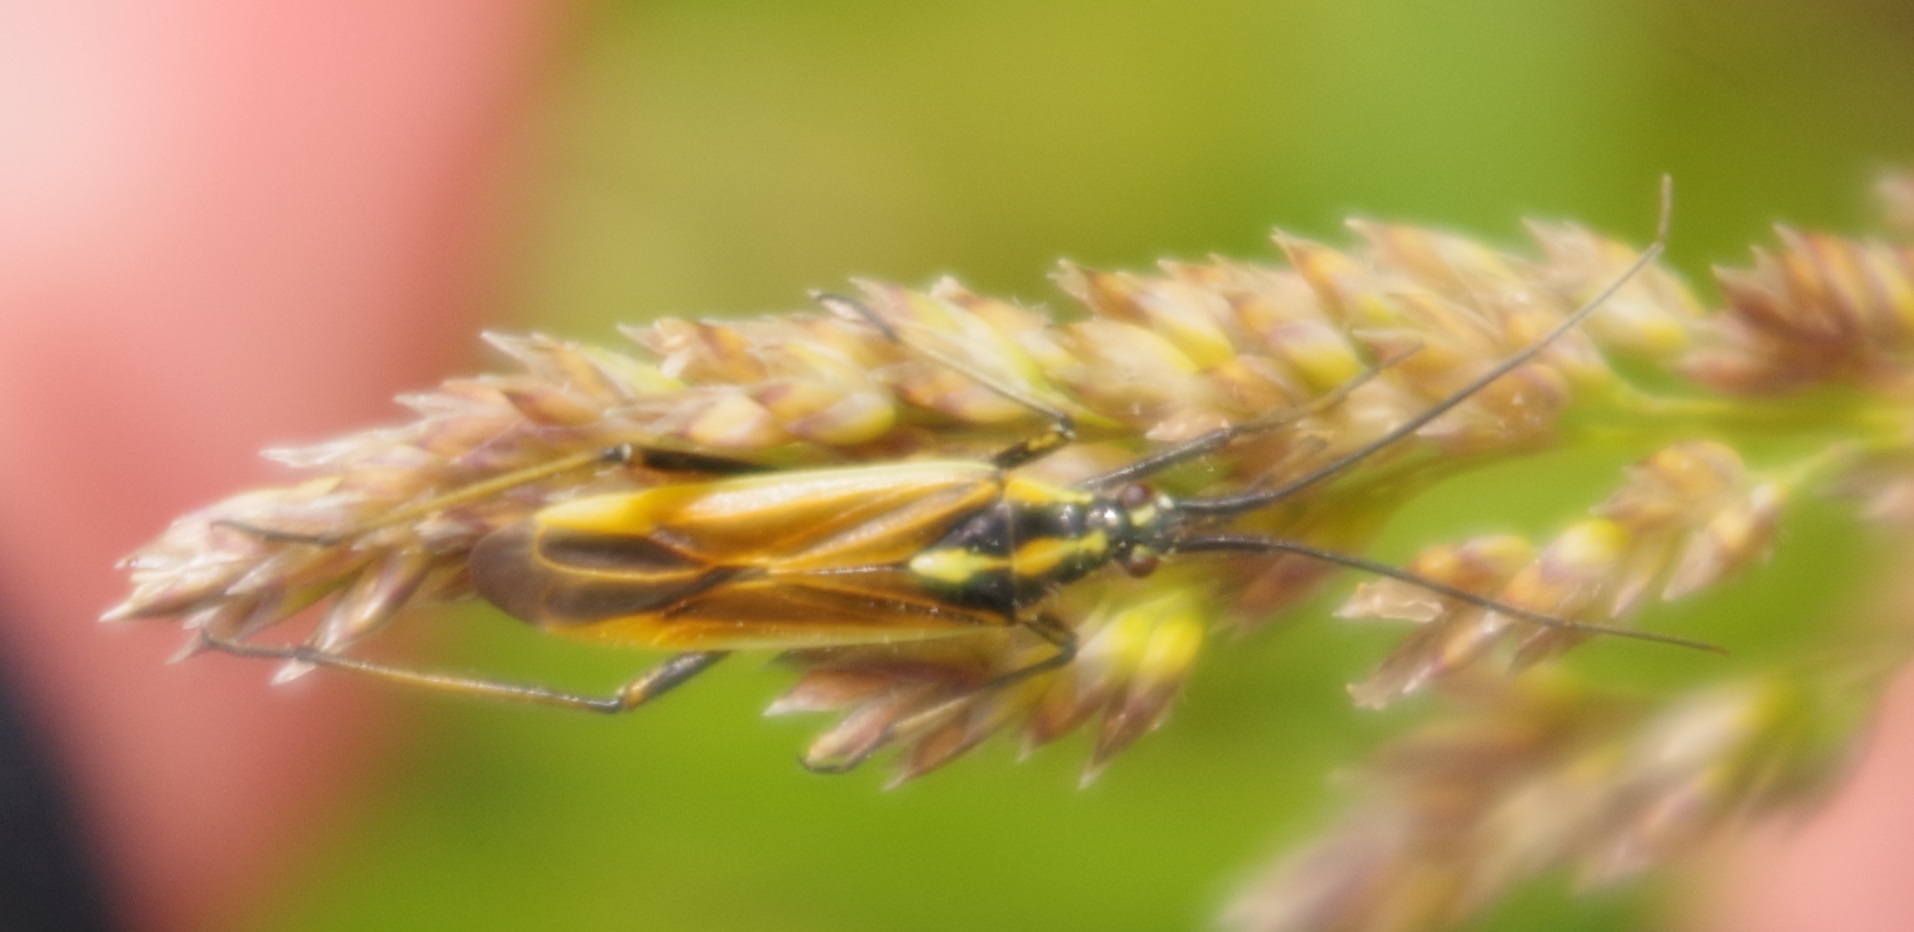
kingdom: Animalia
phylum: Arthropoda
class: Insecta
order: Hemiptera
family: Miridae
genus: Leptopterna
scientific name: Leptopterna dolabrata
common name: Meadow plant bug
